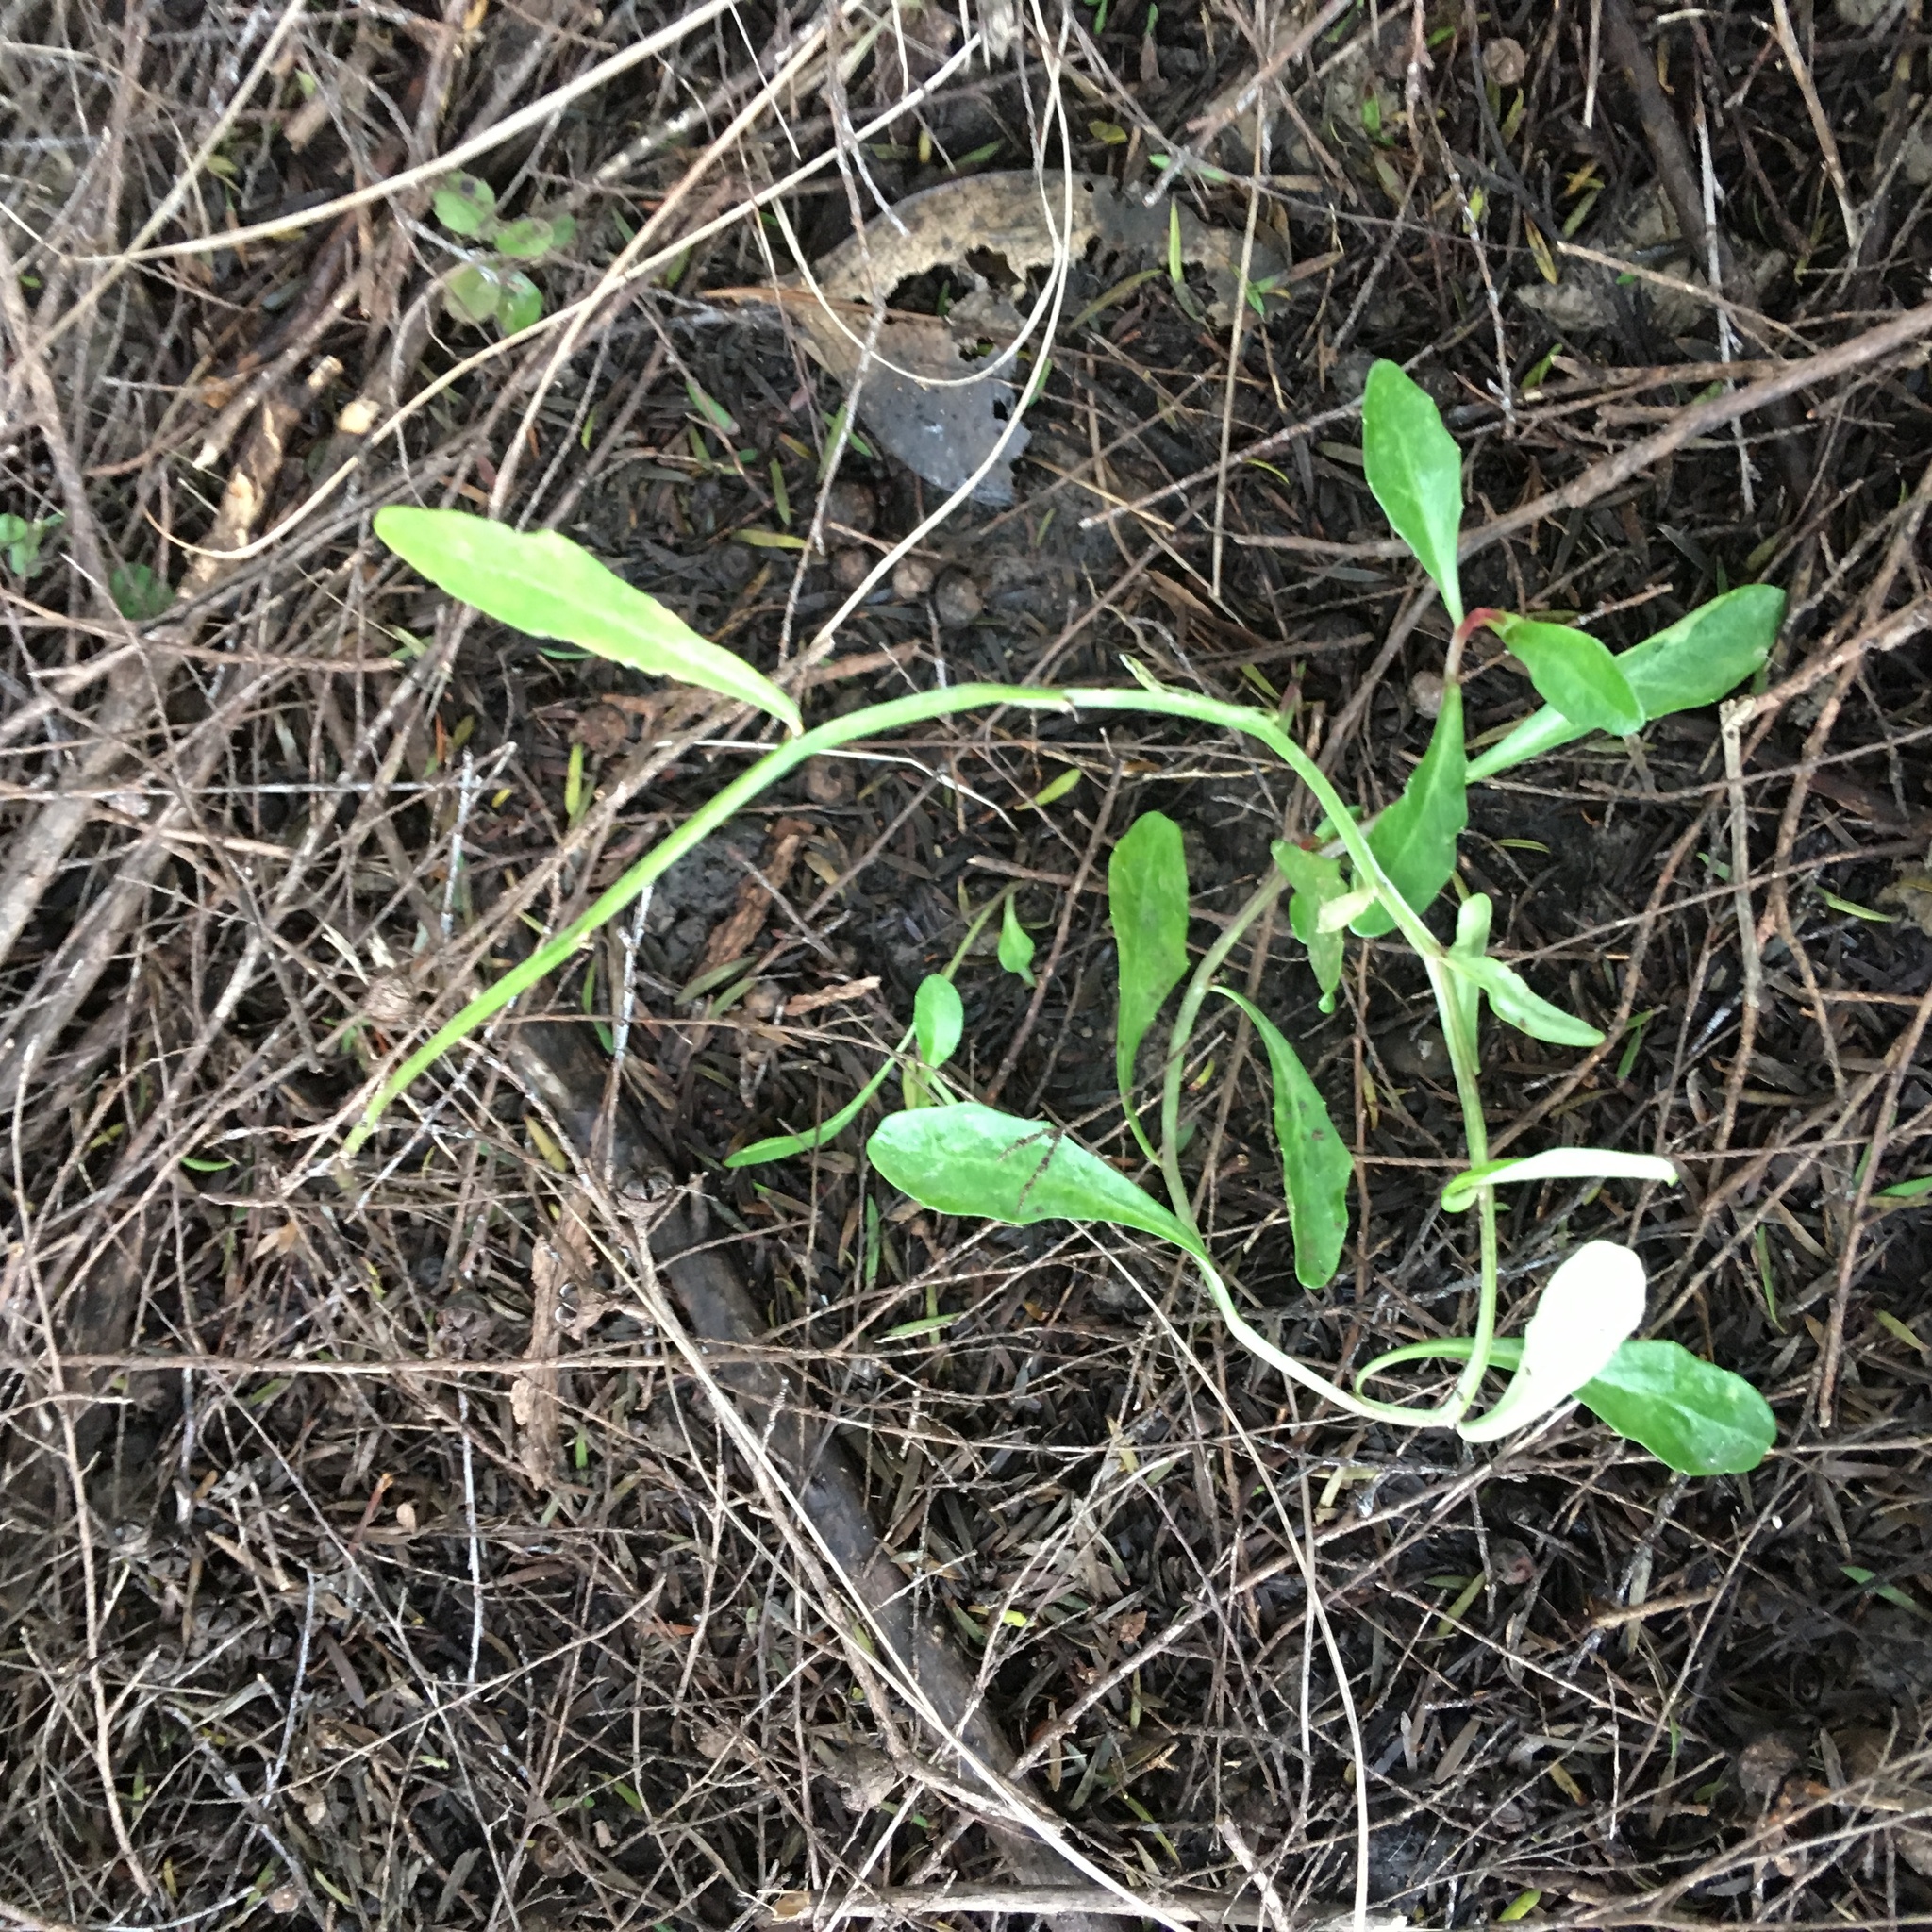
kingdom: Plantae
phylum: Tracheophyta
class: Magnoliopsida
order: Asterales
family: Campanulaceae
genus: Lobelia
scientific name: Lobelia anceps
